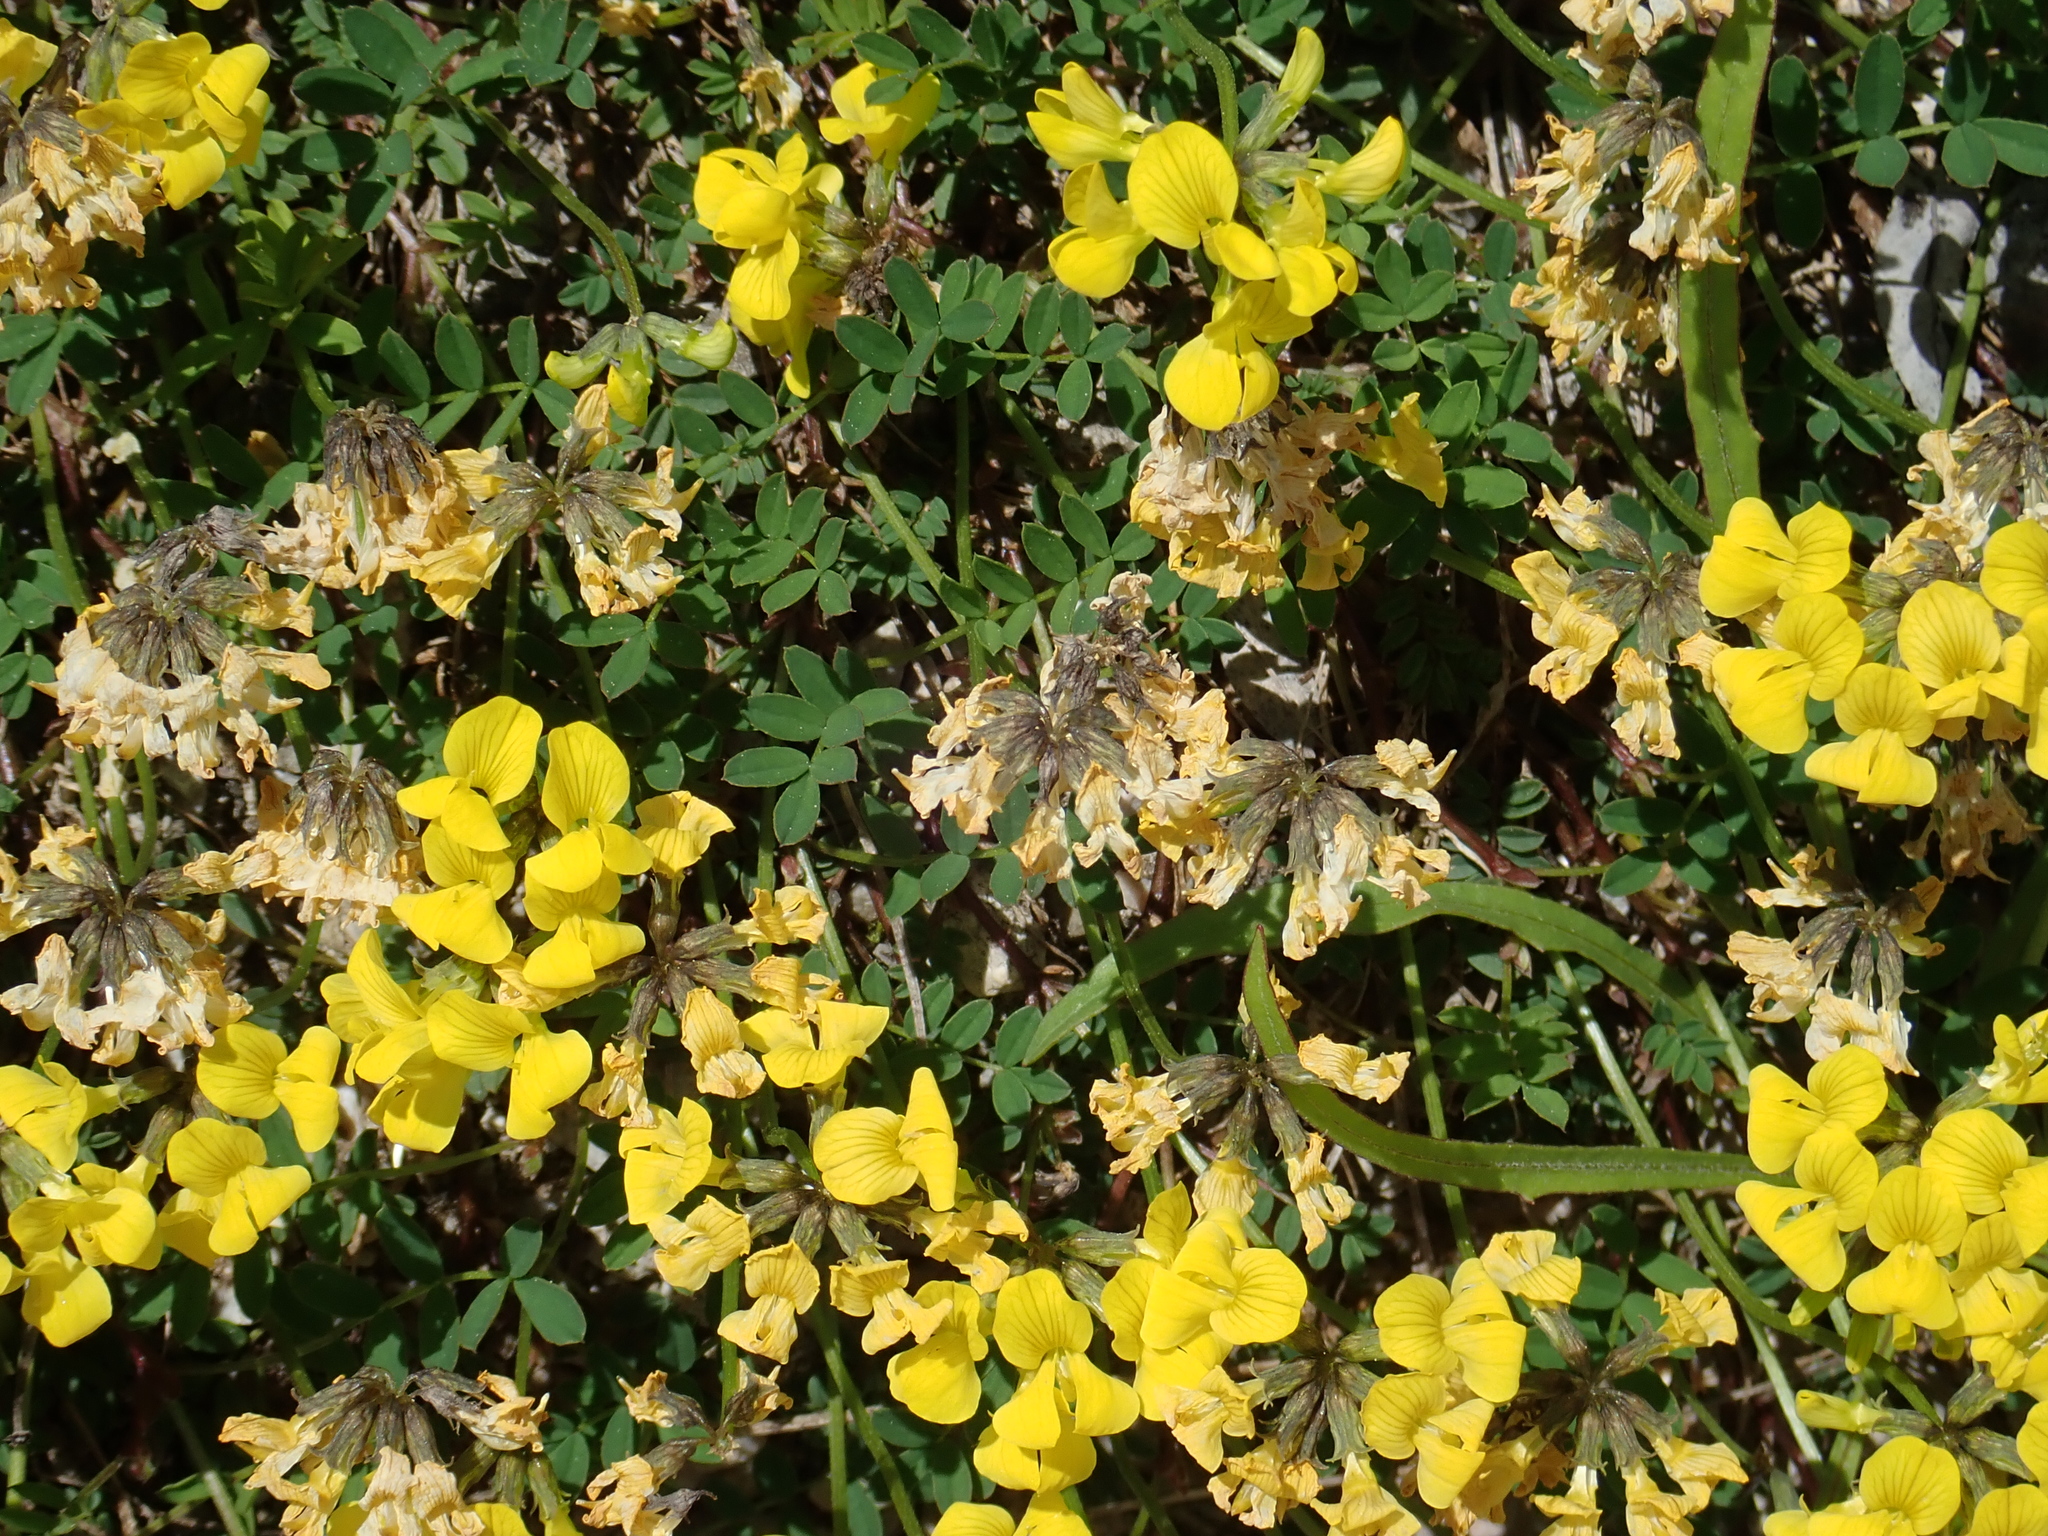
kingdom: Plantae
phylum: Tracheophyta
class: Magnoliopsida
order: Fabales
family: Fabaceae
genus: Hippocrepis
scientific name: Hippocrepis comosa
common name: Horseshoe vetch
